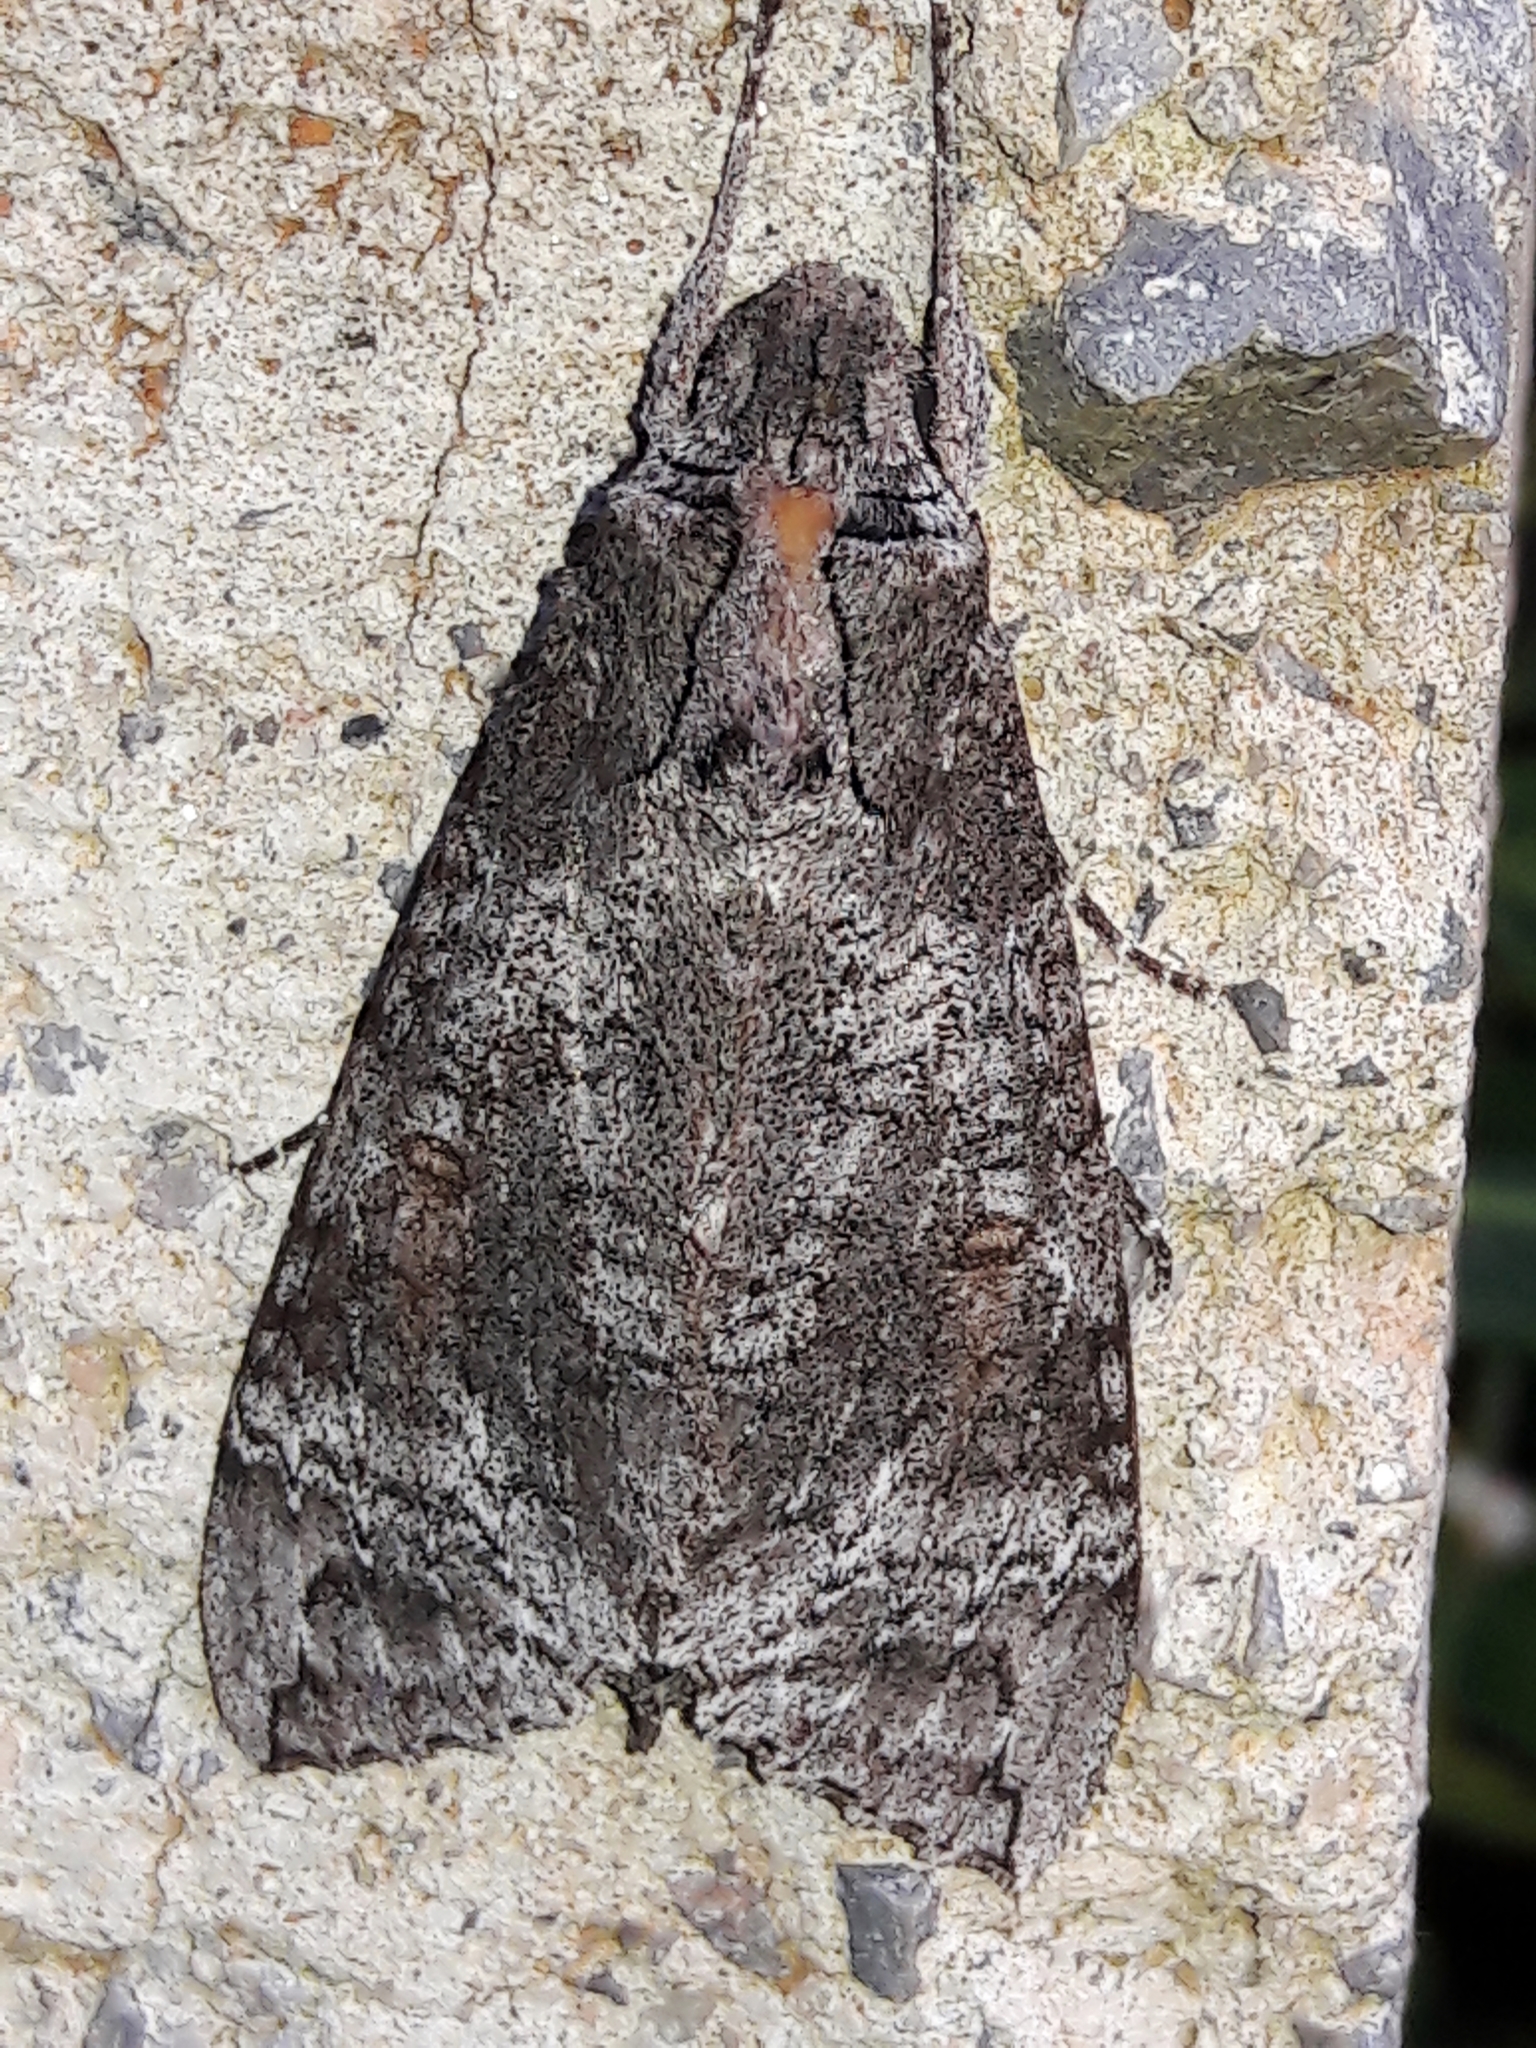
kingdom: Animalia
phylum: Arthropoda
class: Insecta
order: Lepidoptera
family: Sphingidae
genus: Isognathus
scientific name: Isognathus australis
